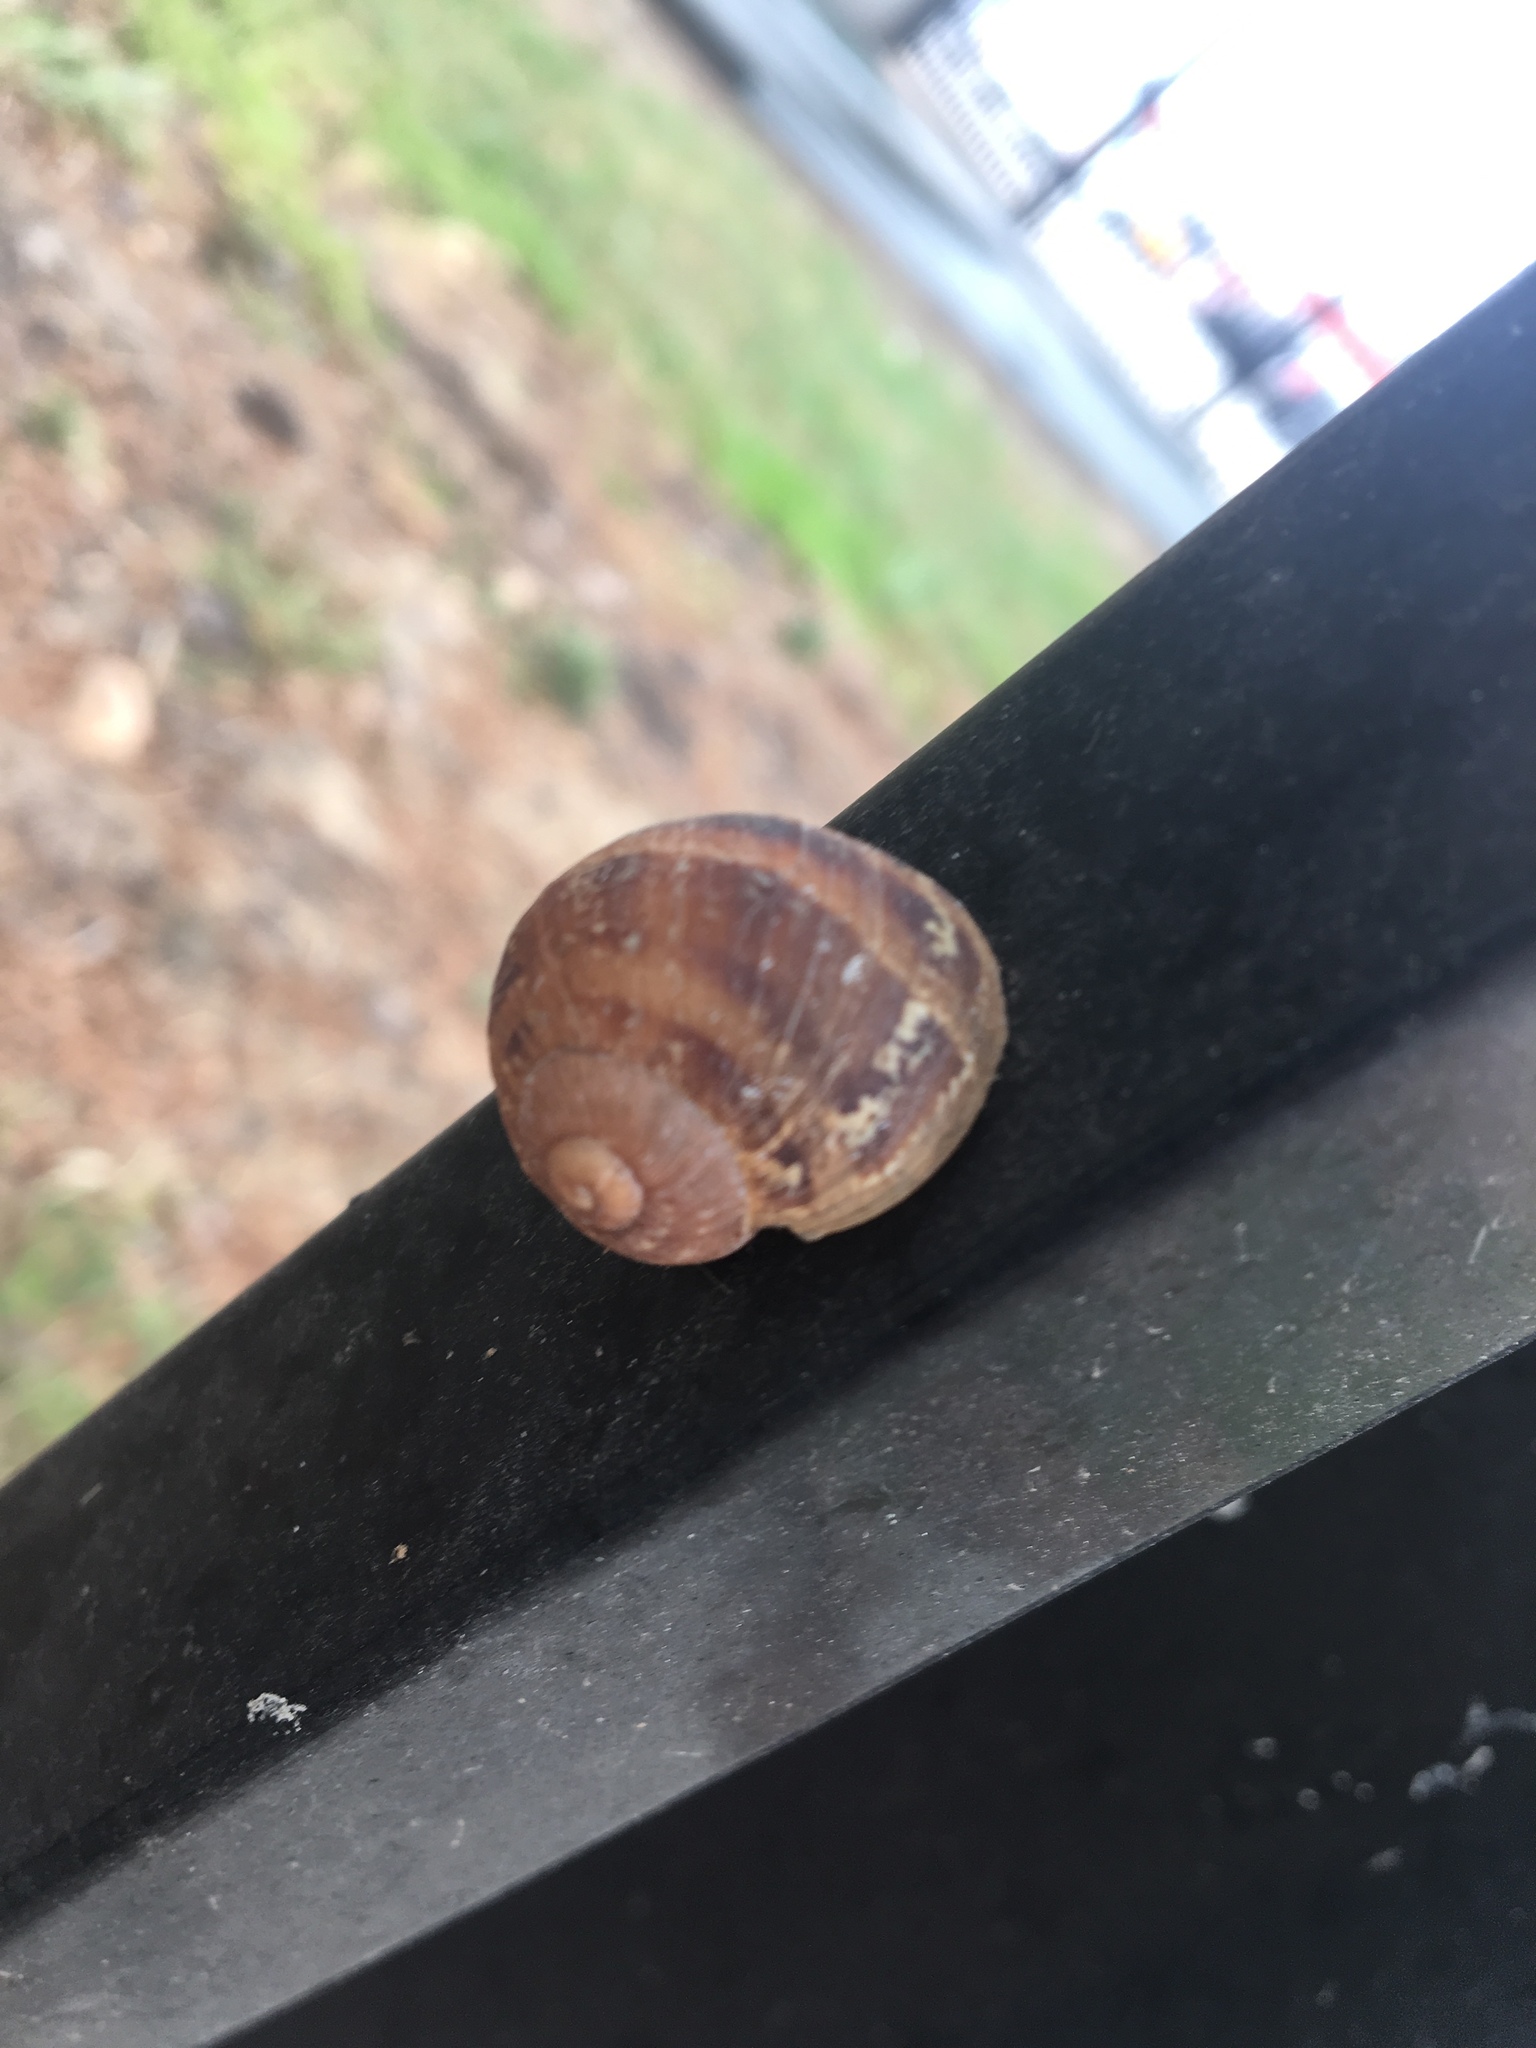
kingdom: Animalia
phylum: Mollusca
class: Gastropoda
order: Stylommatophora
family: Helicidae
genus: Cornu
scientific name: Cornu aspersum
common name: Brown garden snail
